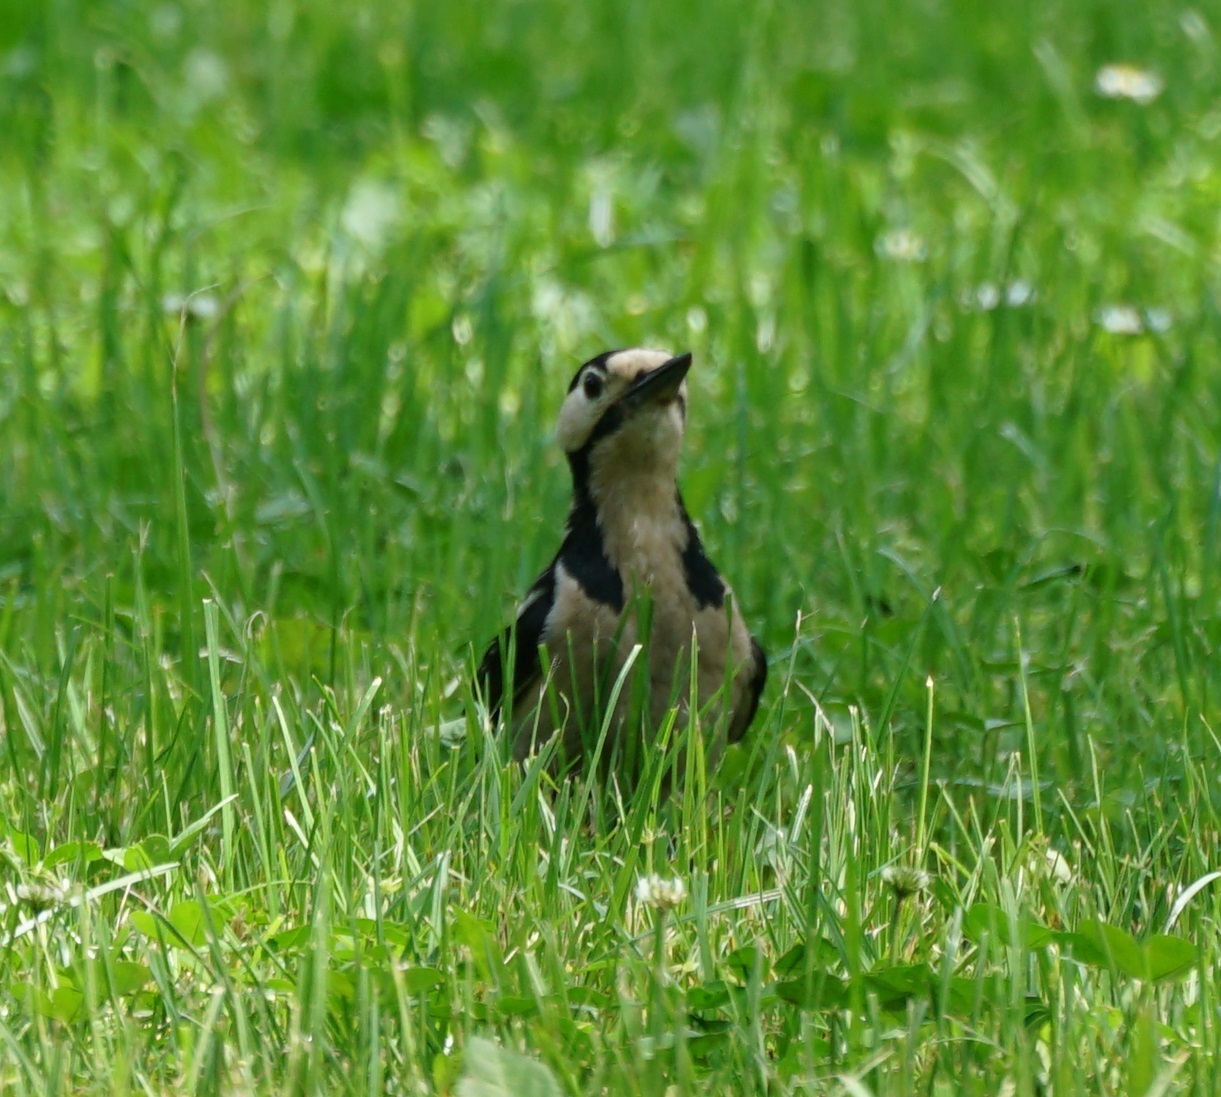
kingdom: Animalia
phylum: Chordata
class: Aves
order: Piciformes
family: Picidae
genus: Dendrocopos
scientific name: Dendrocopos major
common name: Great spotted woodpecker
